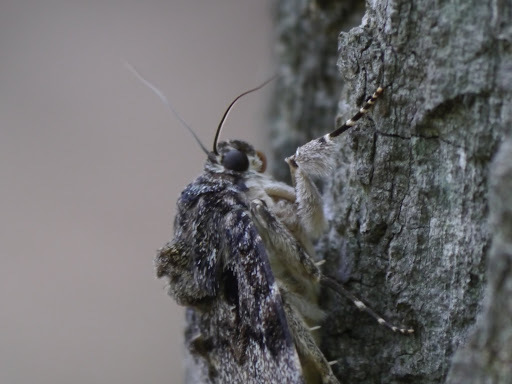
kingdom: Animalia
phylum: Arthropoda
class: Insecta
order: Lepidoptera
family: Erebidae
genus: Catocala
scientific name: Catocala ilia
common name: Ilia underwing
